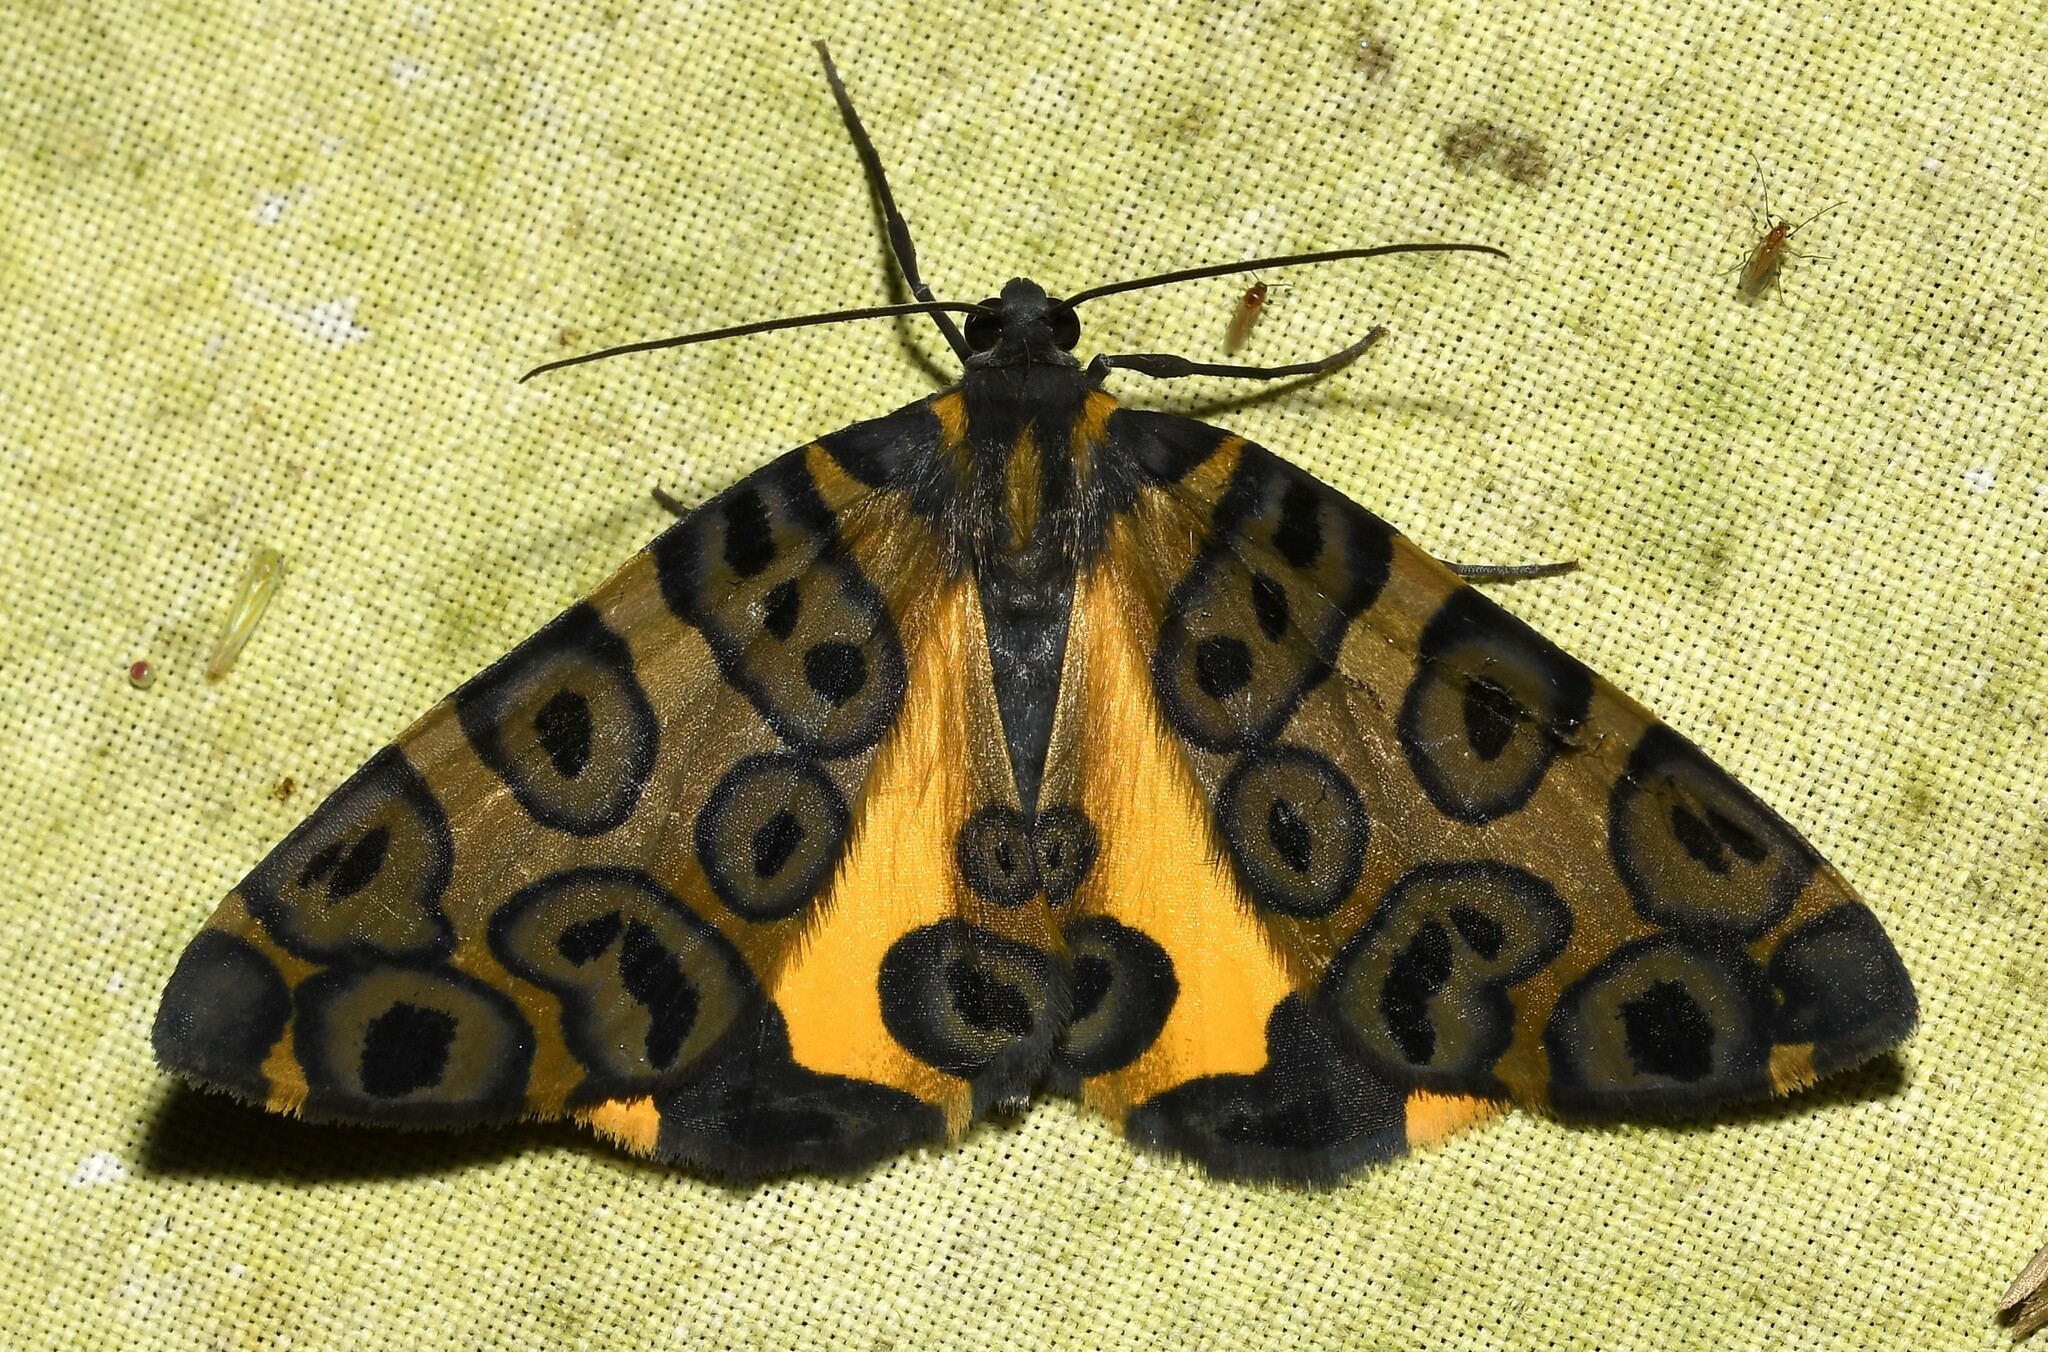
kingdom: Animalia
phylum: Arthropoda
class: Insecta
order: Lepidoptera
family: Geometridae
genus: Pantherodes
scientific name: Pantherodes pardalaria
